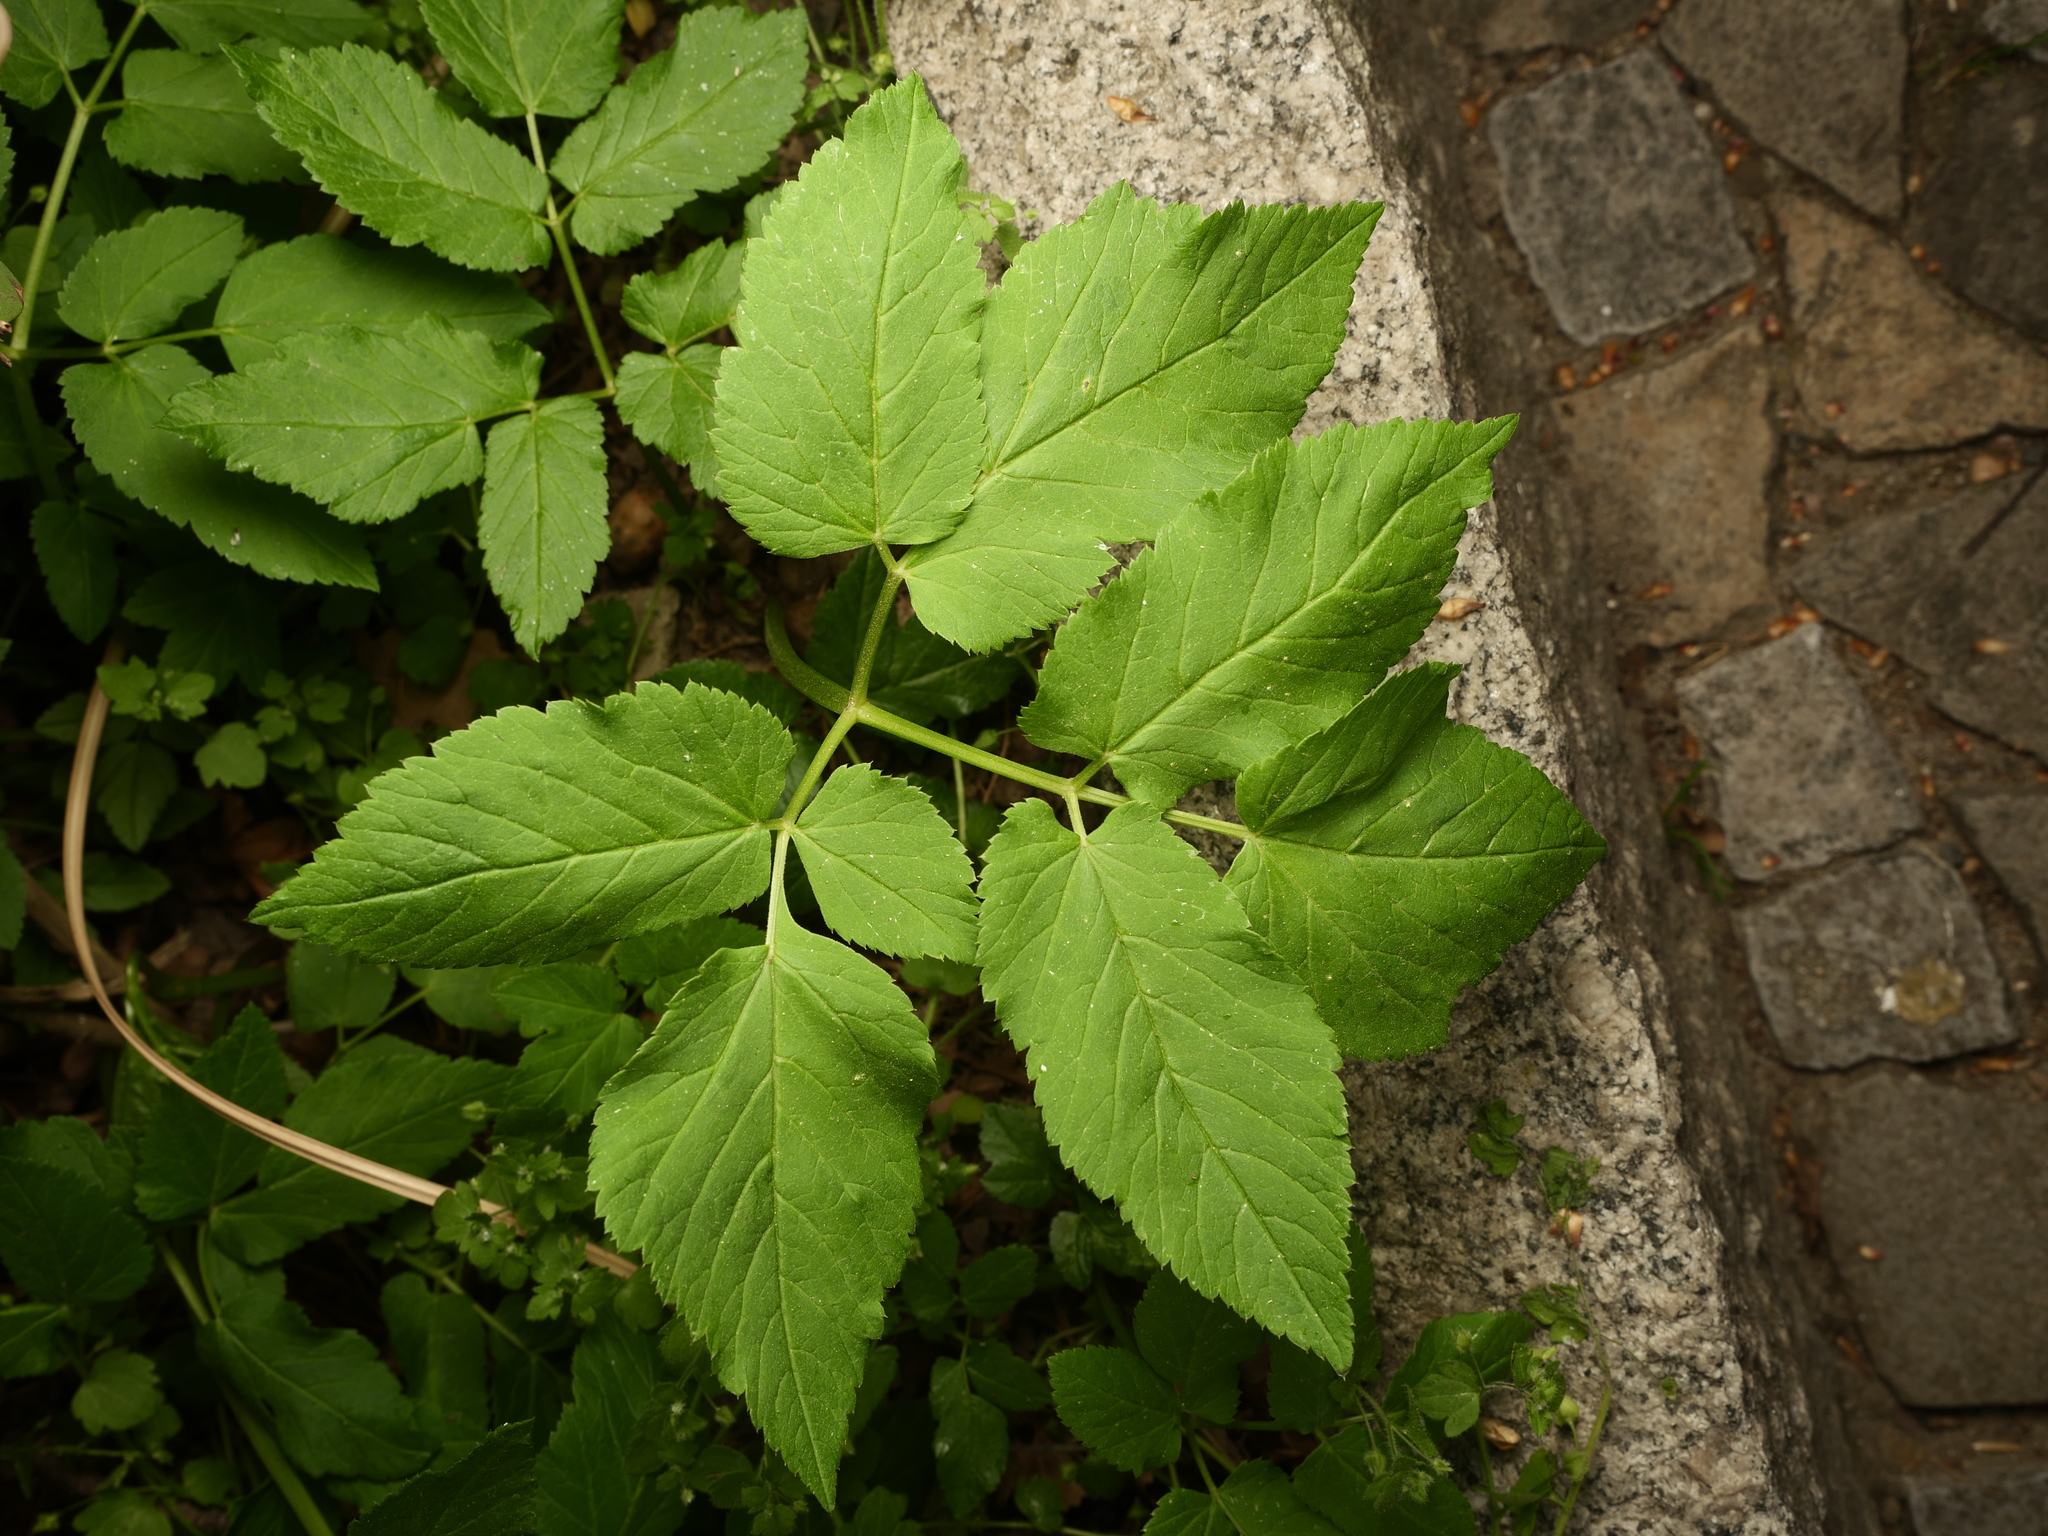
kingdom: Plantae
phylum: Tracheophyta
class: Magnoliopsida
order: Apiales
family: Apiaceae
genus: Aegopodium
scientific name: Aegopodium podagraria
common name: Ground-elder
